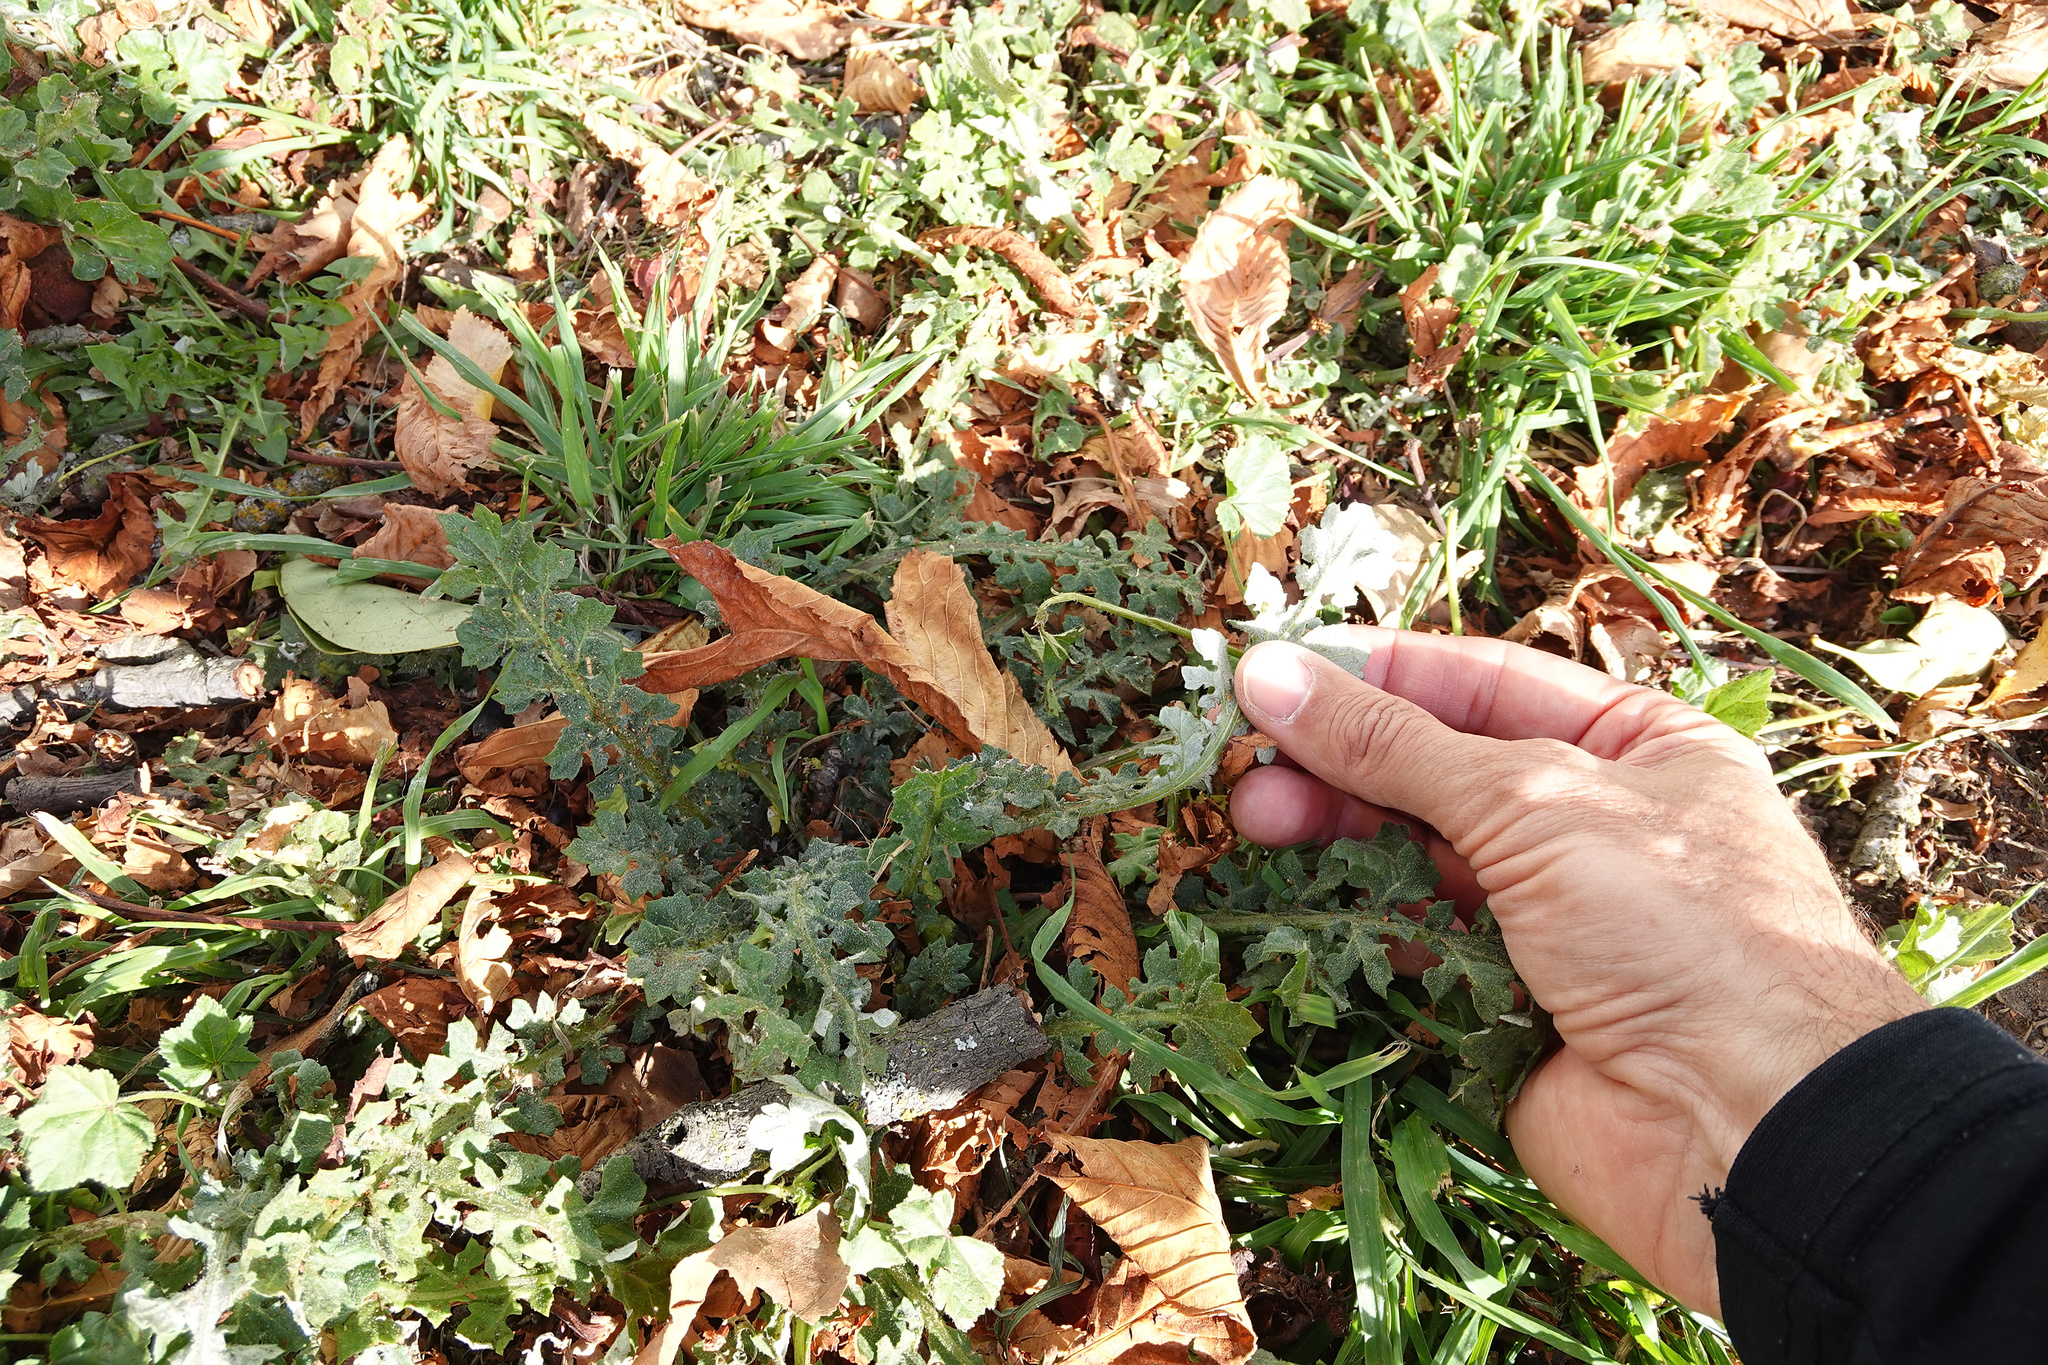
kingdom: Plantae
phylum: Tracheophyta
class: Magnoliopsida
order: Asterales
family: Asteraceae
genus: Arctotheca
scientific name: Arctotheca calendula
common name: Capeweed
